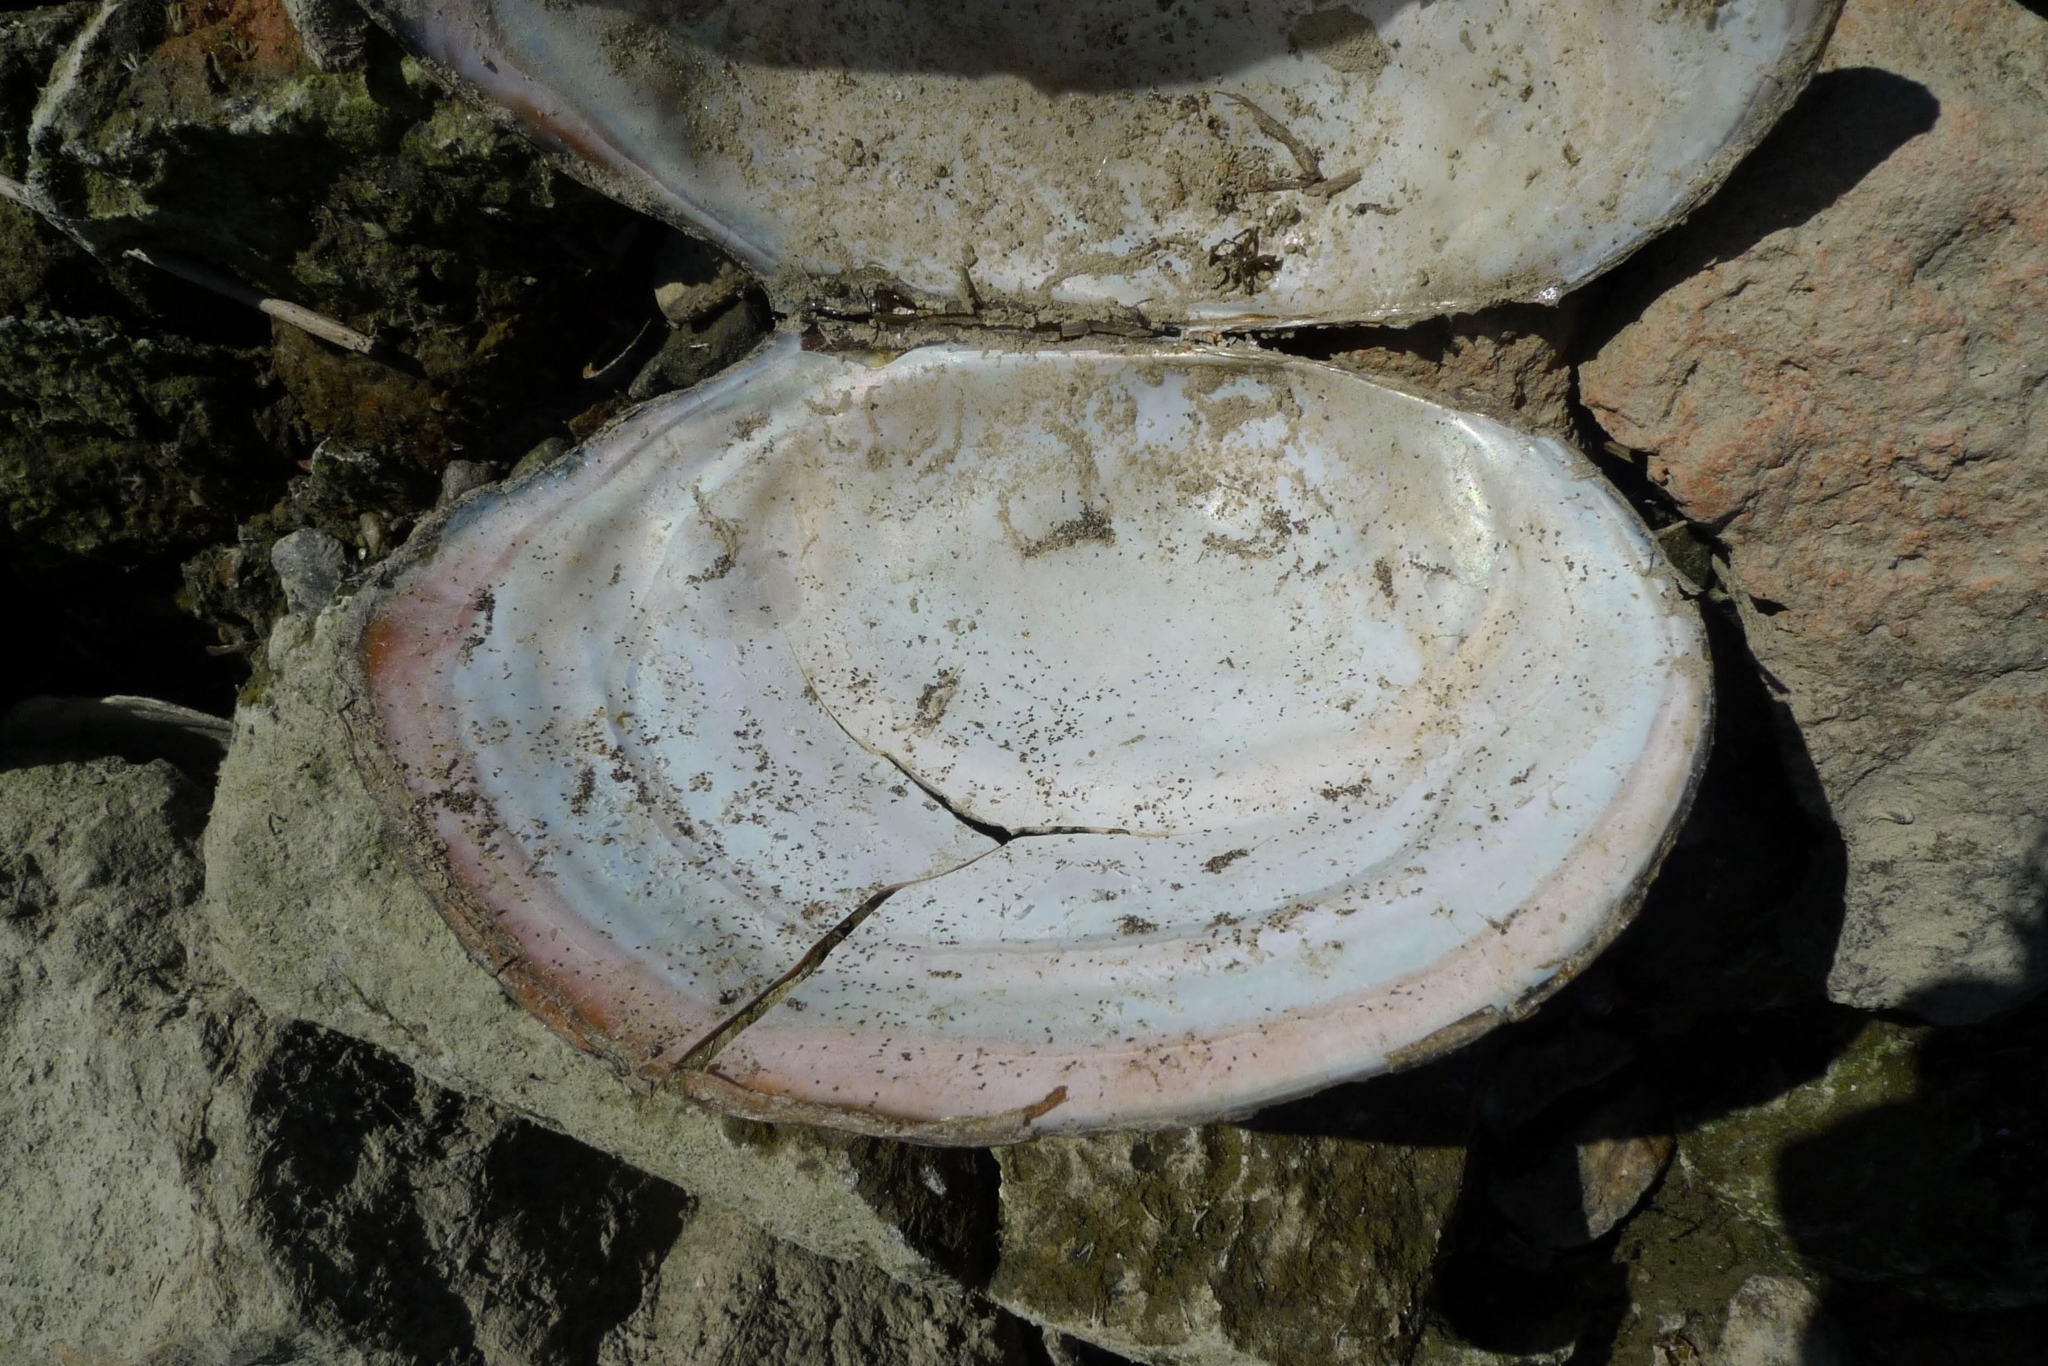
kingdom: Animalia
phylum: Mollusca
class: Bivalvia
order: Unionida
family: Unionidae
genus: Sinanodonta
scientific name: Sinanodonta woodiana
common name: Chinese pond mussel
